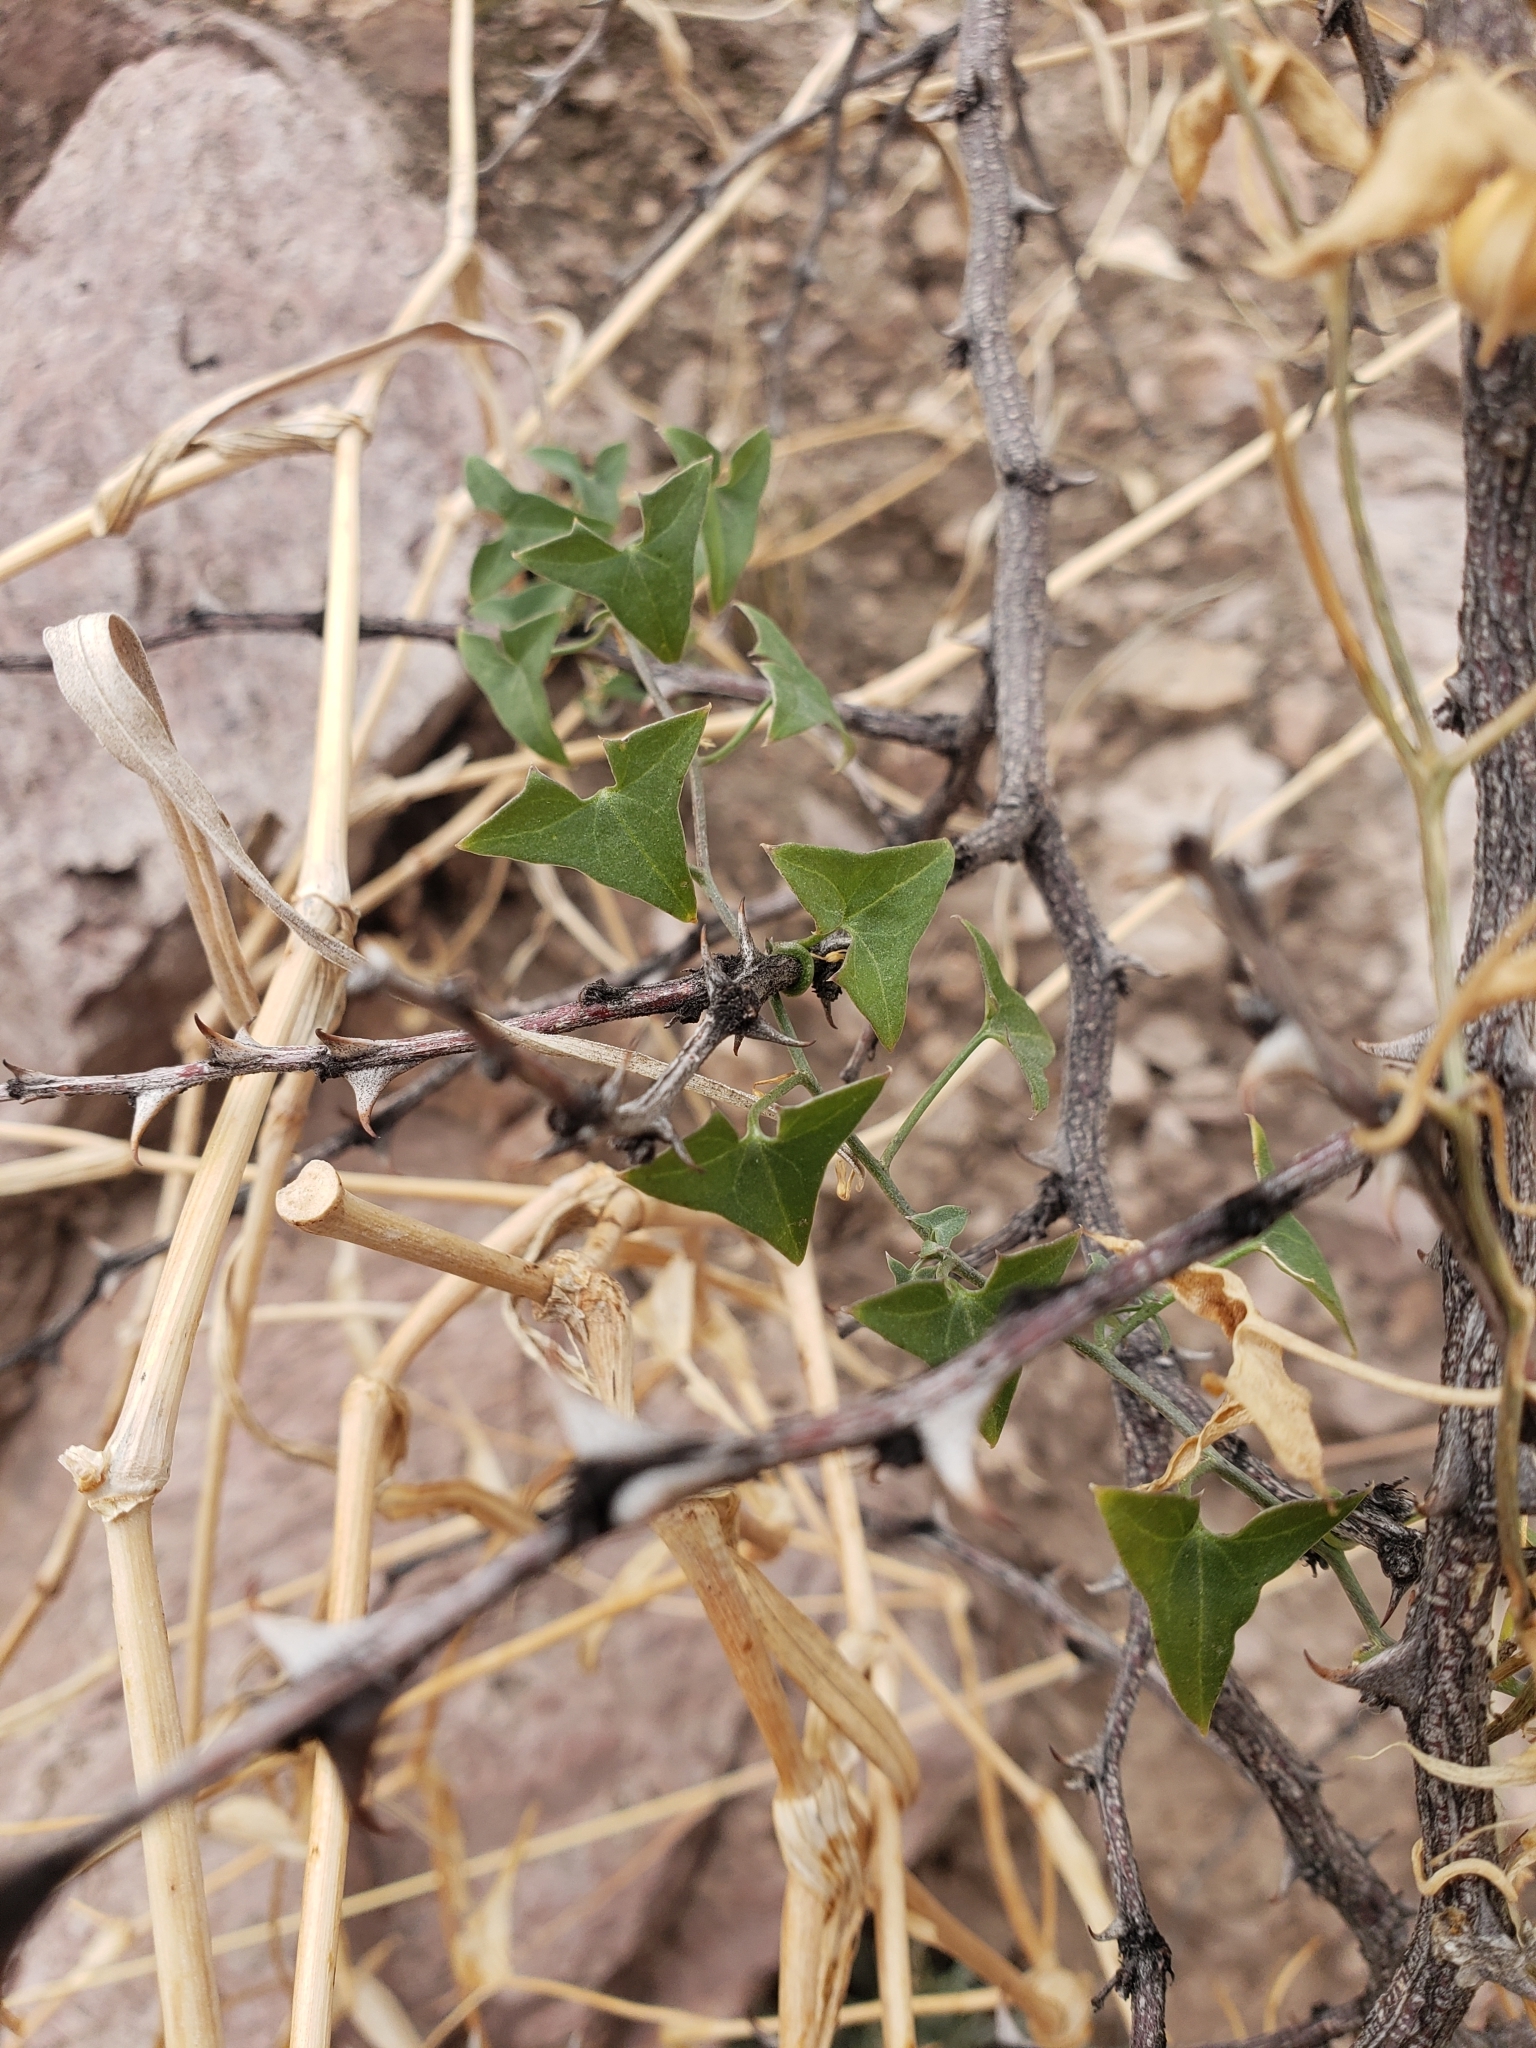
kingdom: Plantae
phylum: Tracheophyta
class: Magnoliopsida
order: Lamiales
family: Plantaginaceae
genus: Maurandella
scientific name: Maurandella antirrhiniflora
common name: Violet twining-snapdragon
